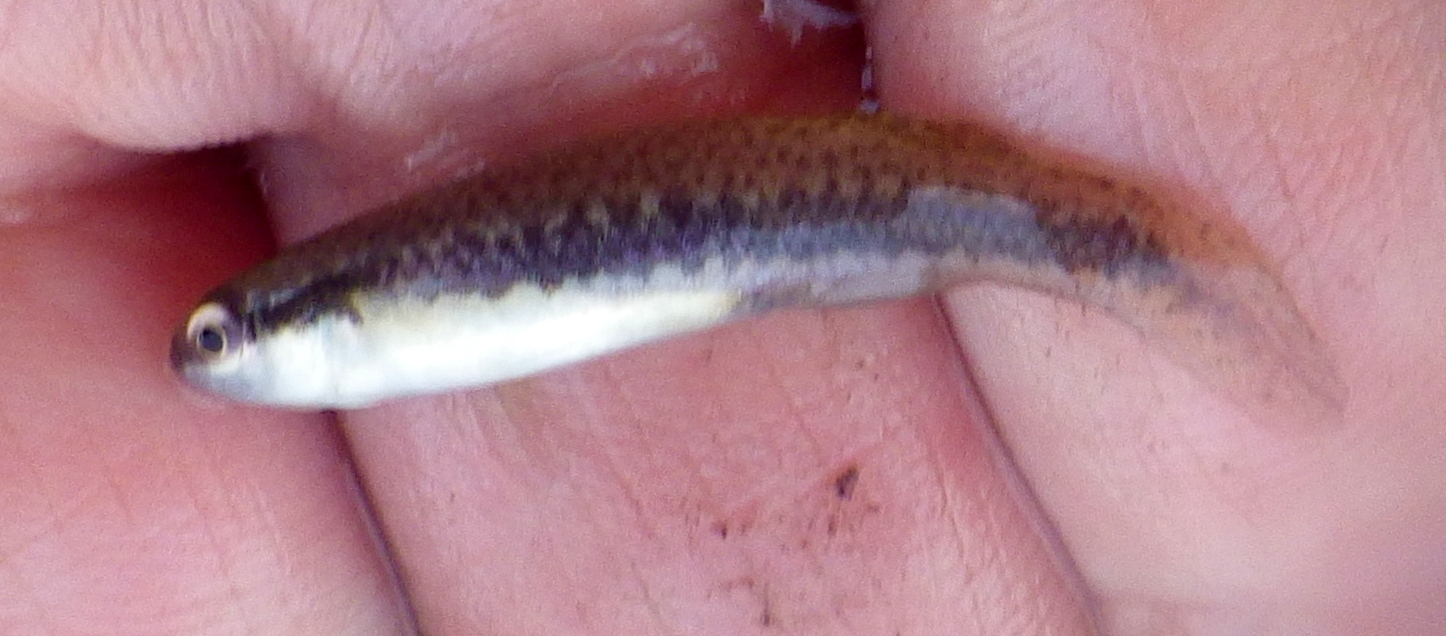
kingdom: Animalia
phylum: Chordata
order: Cyprinodontiformes
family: Fundulidae
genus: Fundulus
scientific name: Fundulus notatus
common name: Blackstripe topminnow
